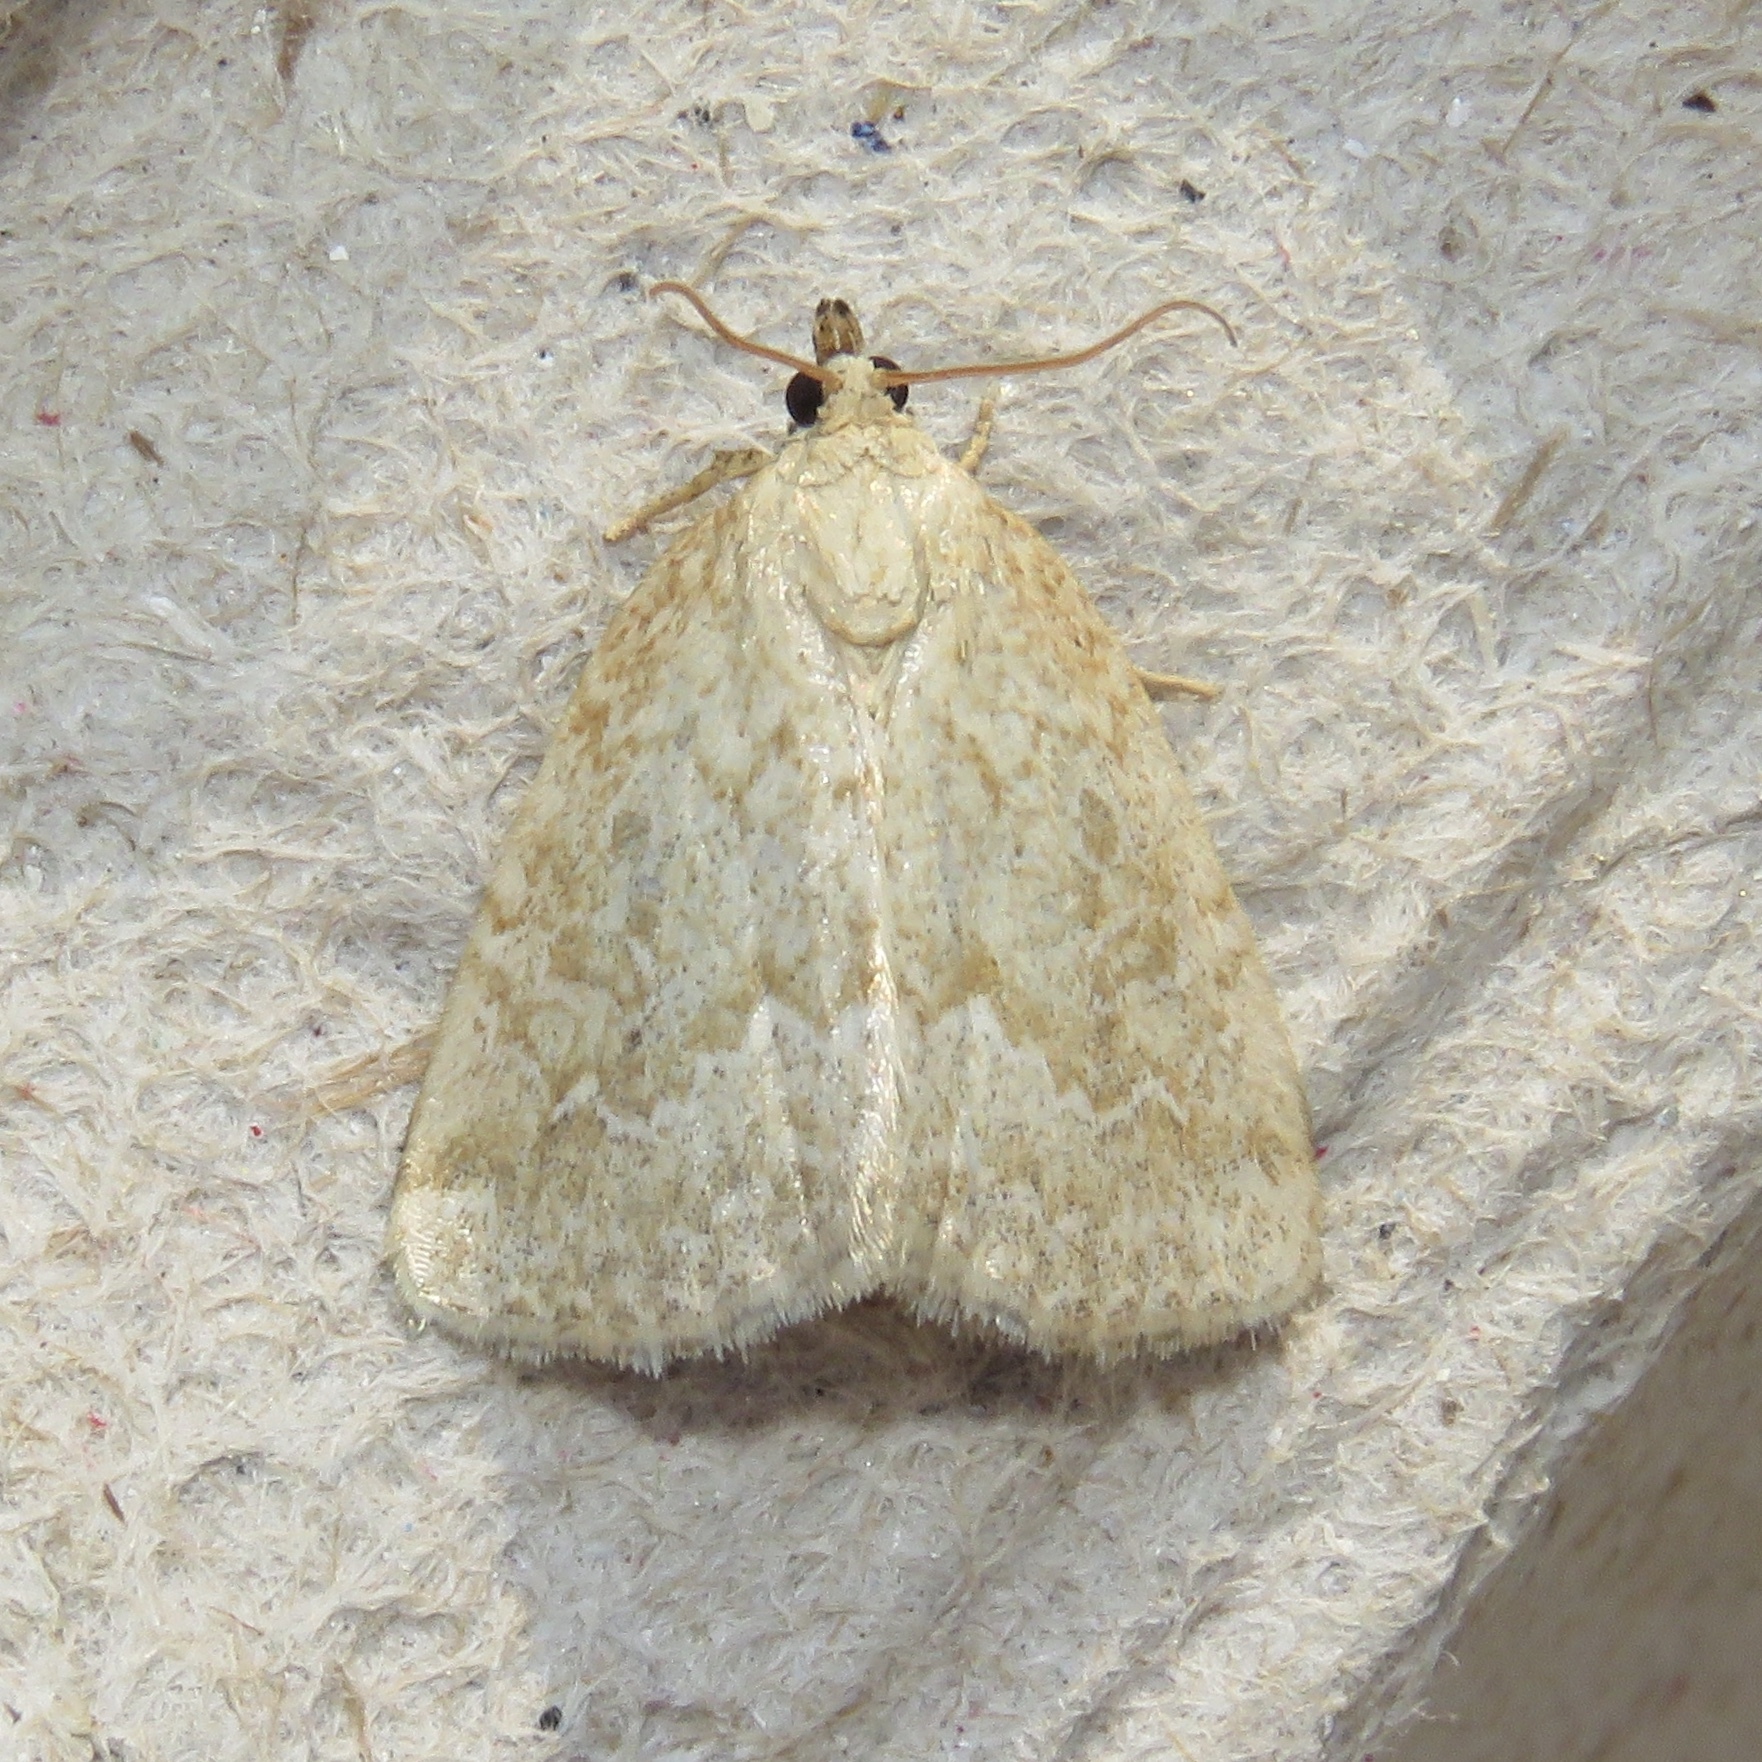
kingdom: Animalia
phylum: Arthropoda
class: Insecta
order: Lepidoptera
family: Noctuidae
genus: Protodeltote
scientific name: Protodeltote albidula
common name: Pale glyph
